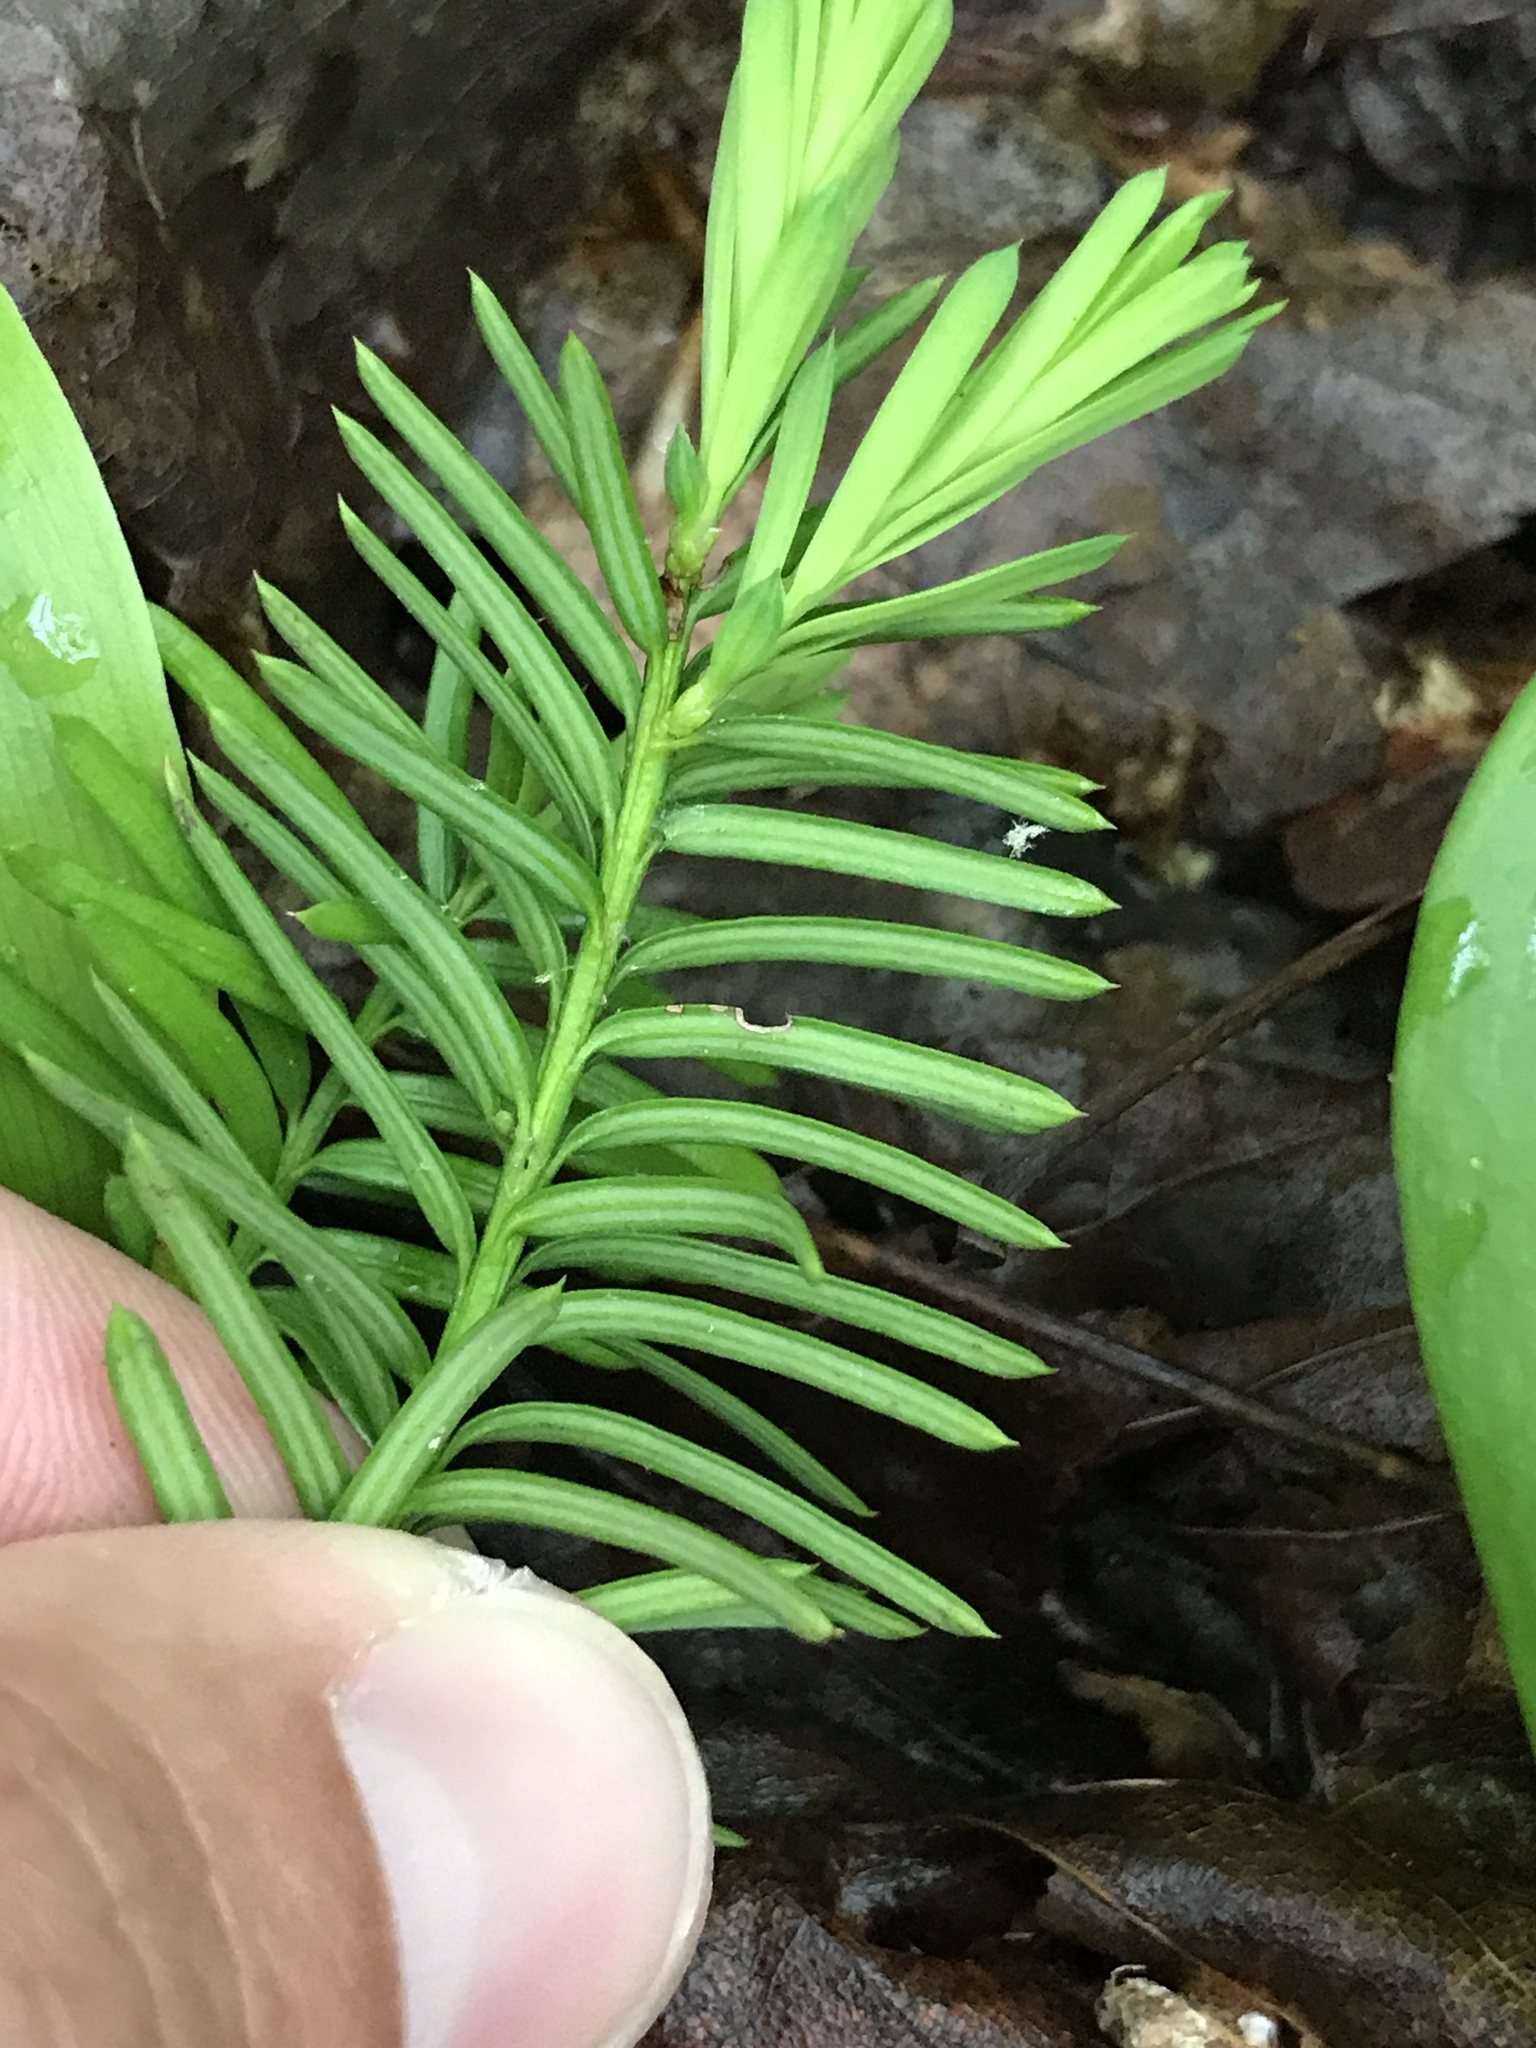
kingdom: Plantae
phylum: Tracheophyta
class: Pinopsida
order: Pinales
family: Taxaceae
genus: Taxus
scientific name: Taxus canadensis
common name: American yew
